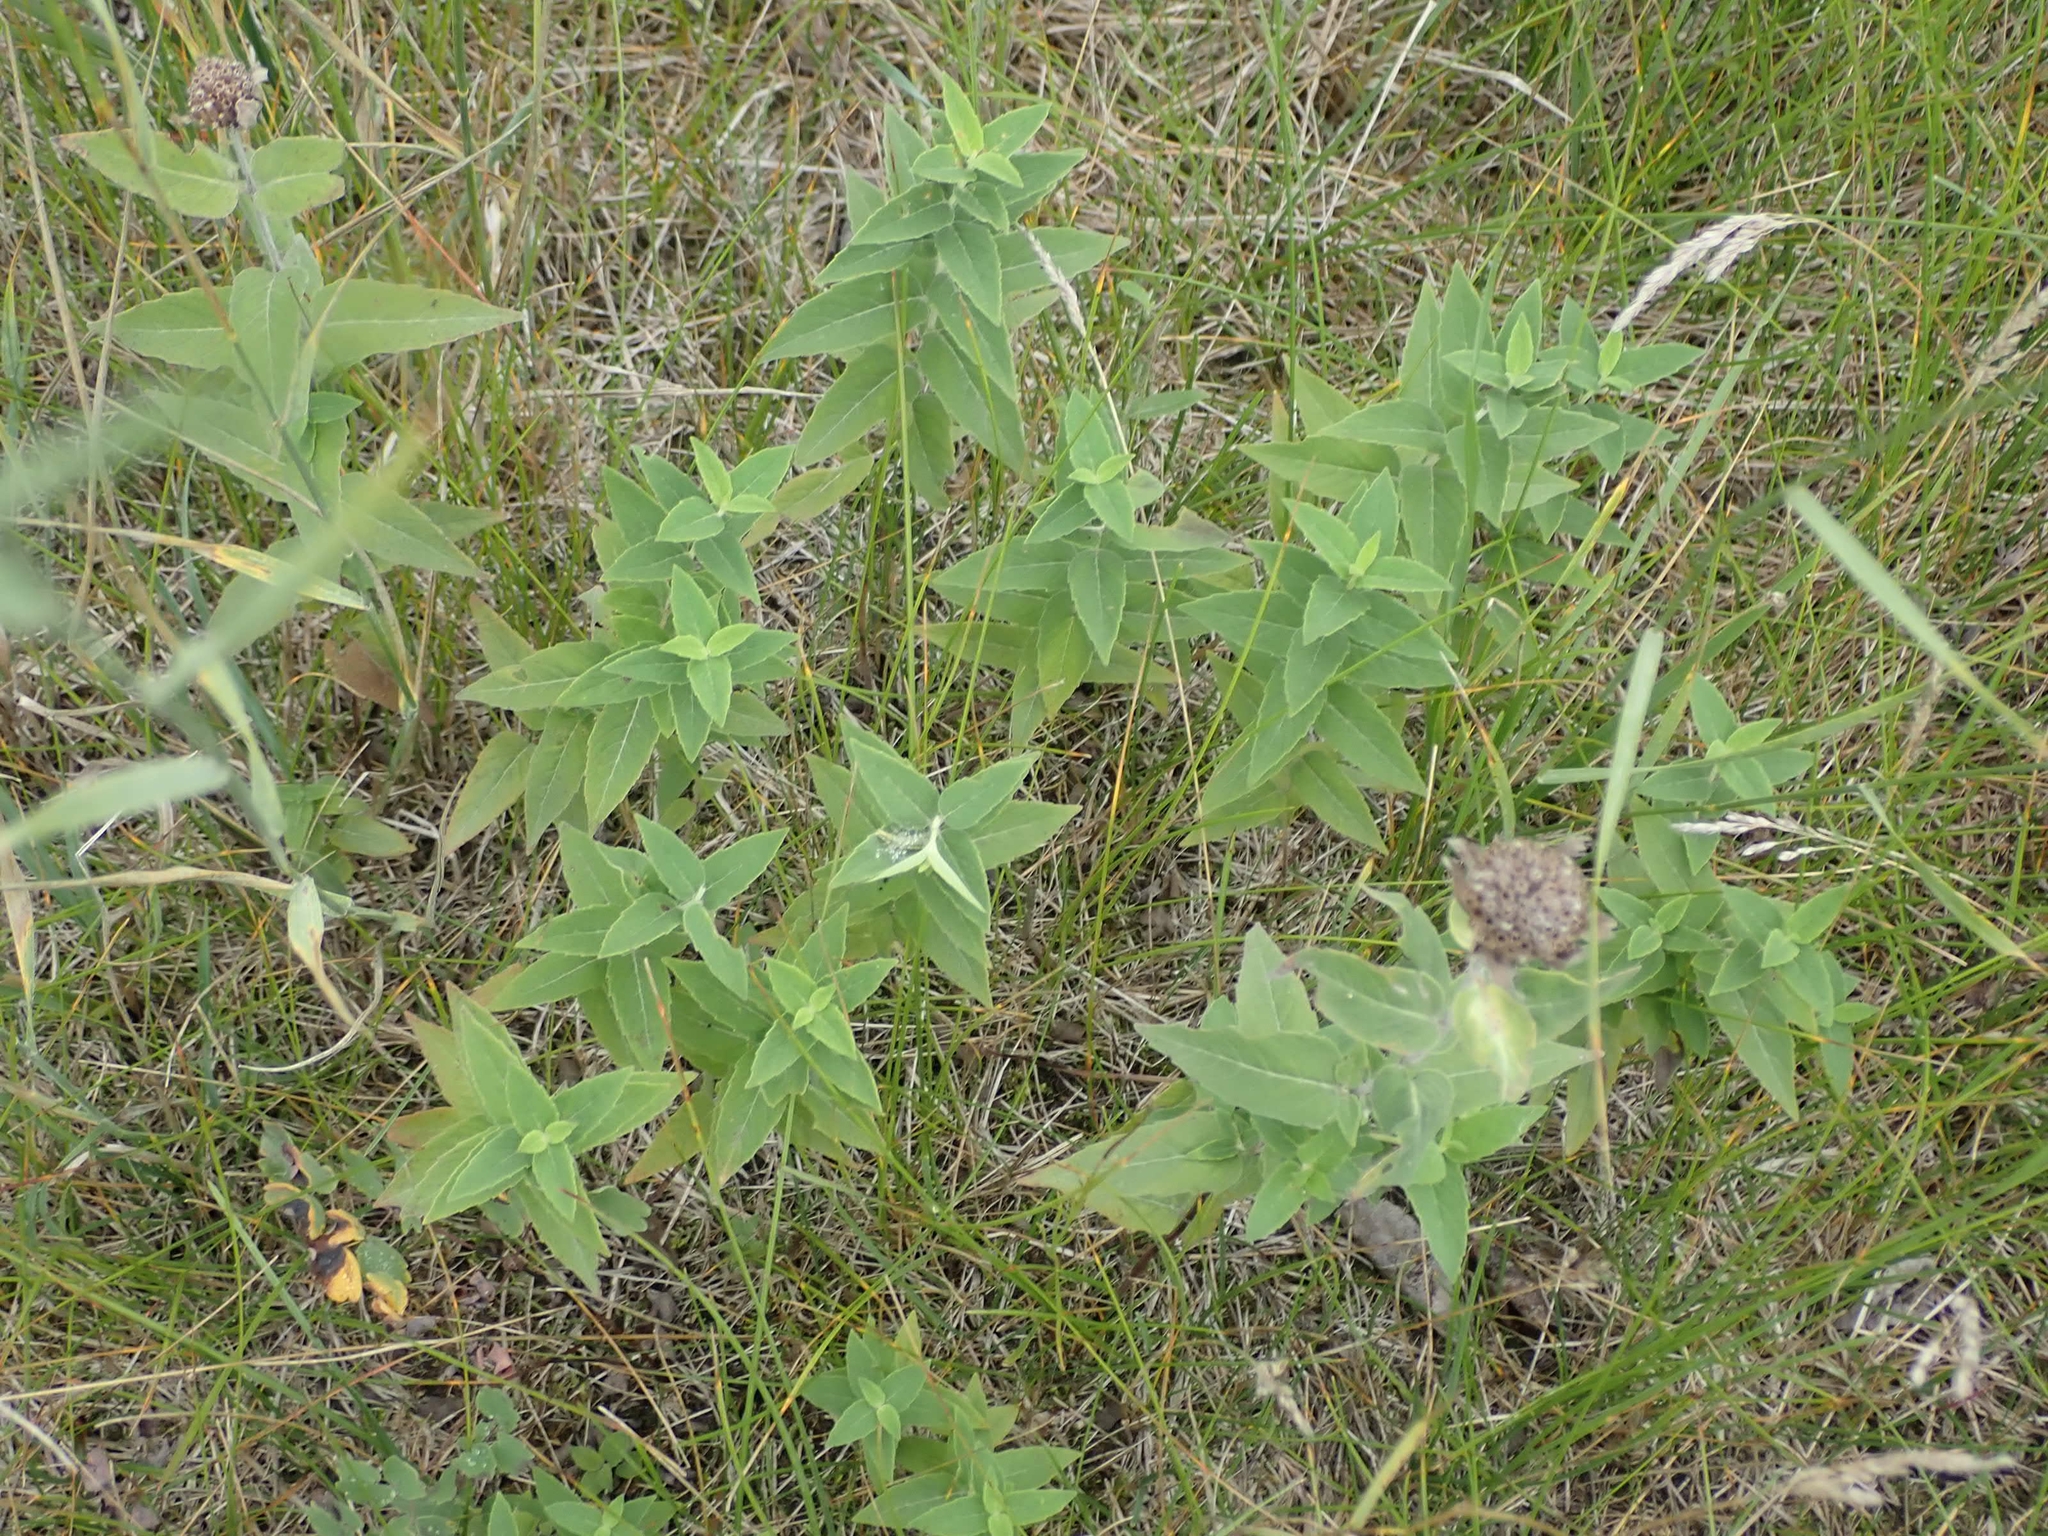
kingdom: Plantae
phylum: Tracheophyta
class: Magnoliopsida
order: Lamiales
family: Lamiaceae
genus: Monarda
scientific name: Monarda fistulosa
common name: Purple beebalm
